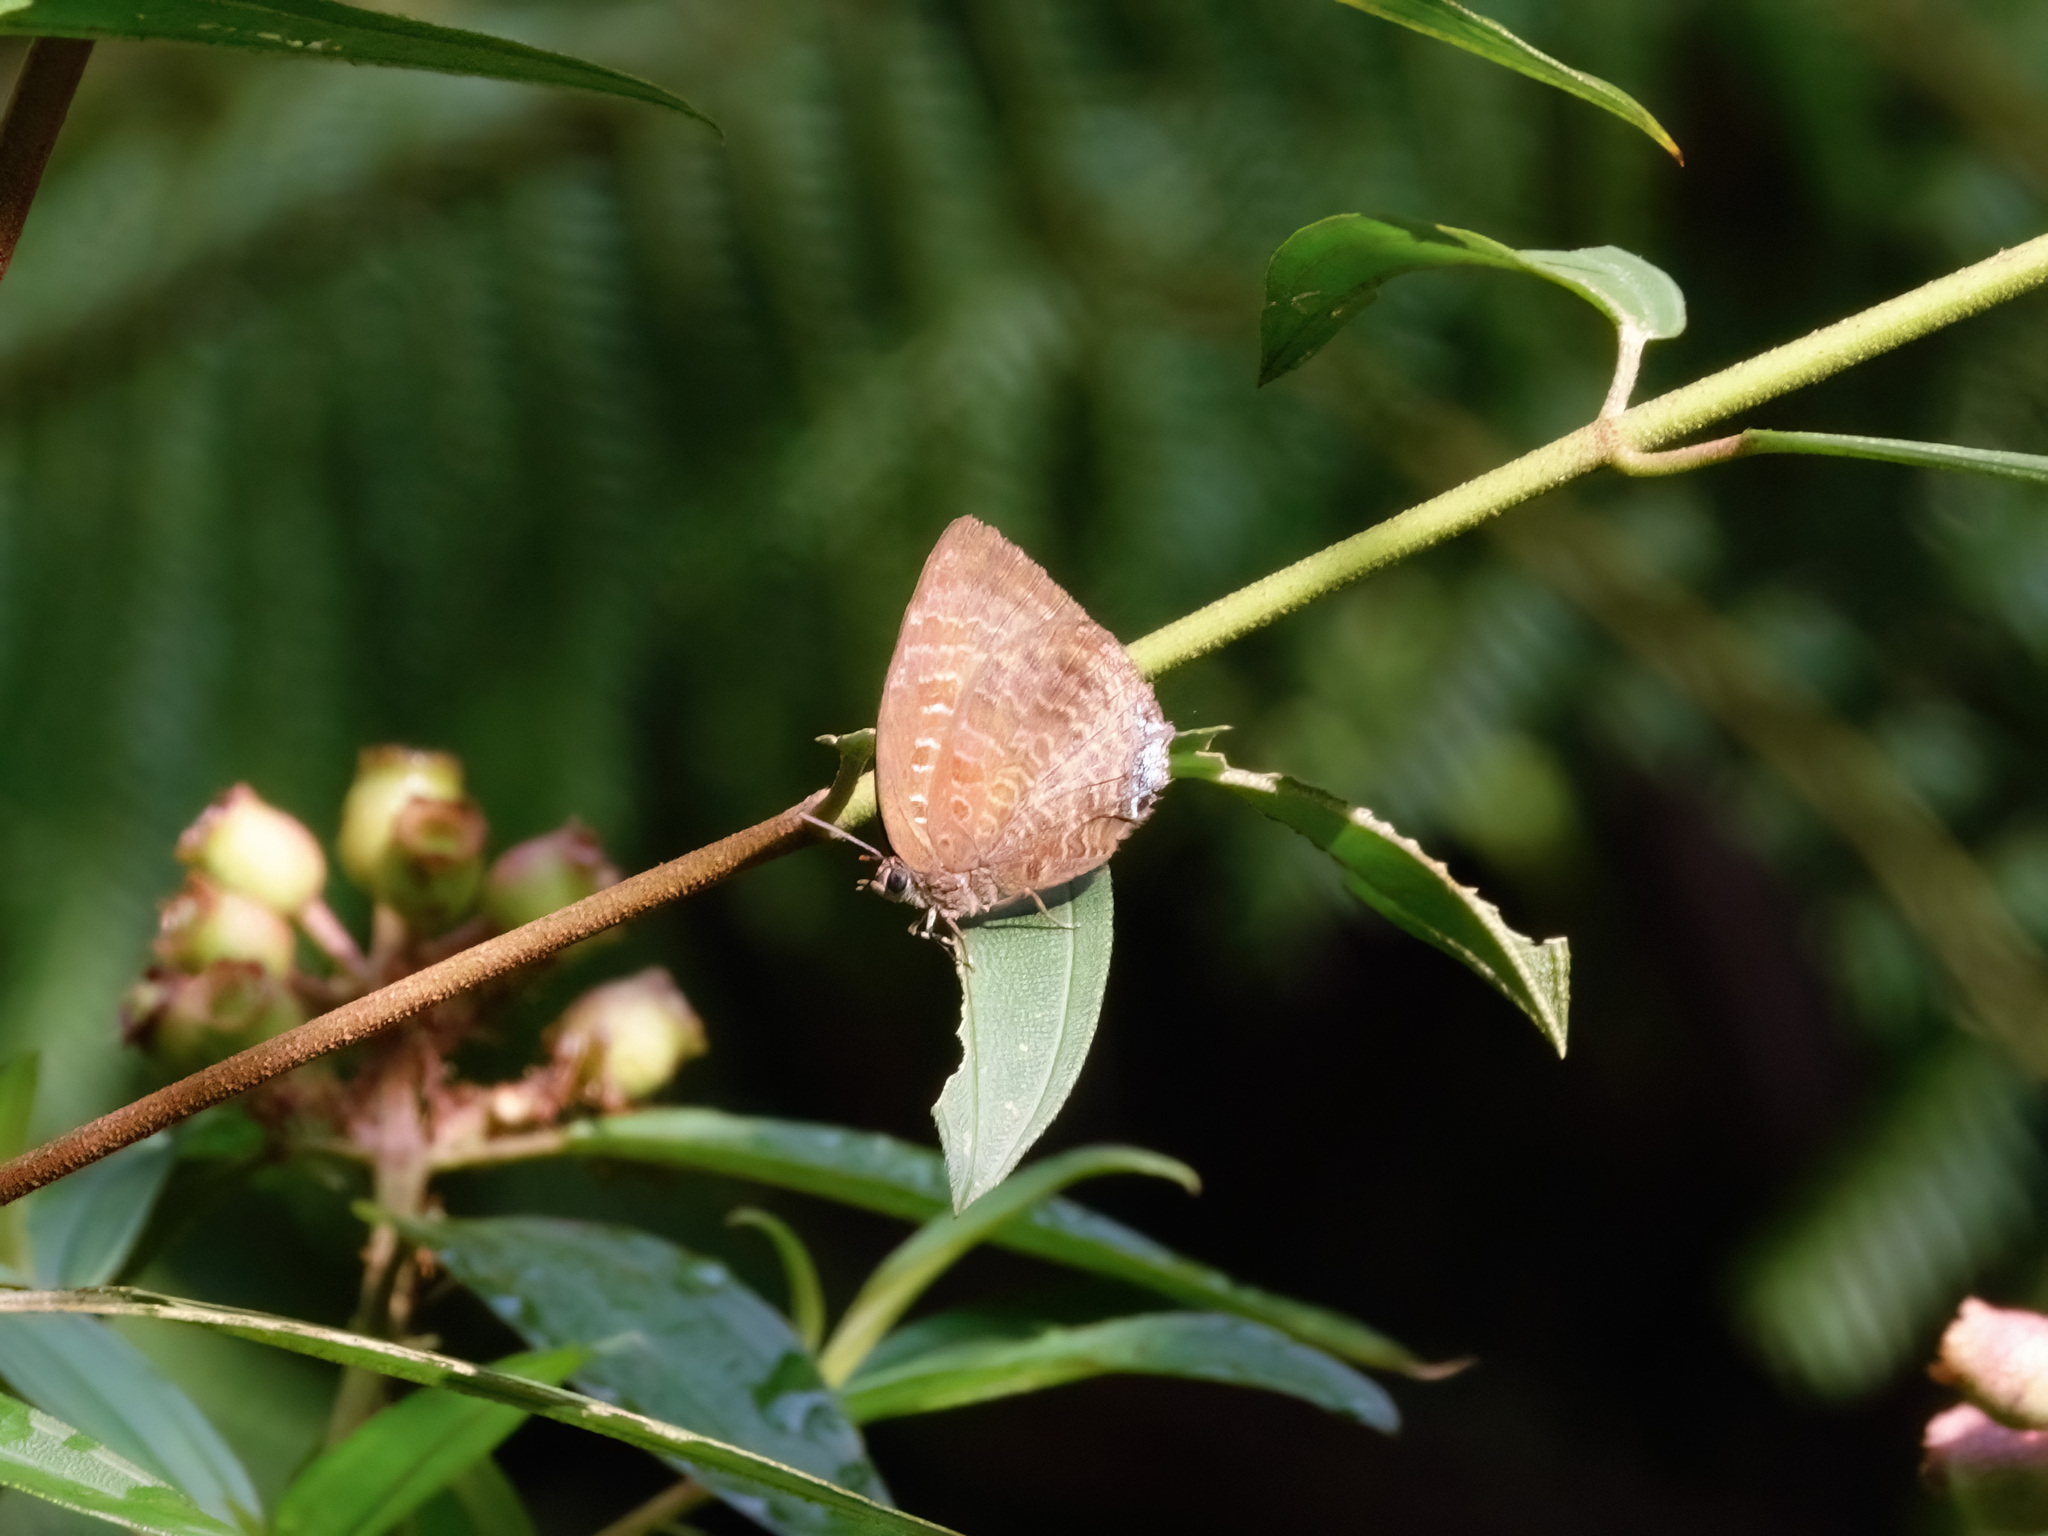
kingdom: Animalia
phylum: Arthropoda
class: Insecta
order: Lepidoptera
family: Lycaenidae
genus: Arhopala
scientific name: Arhopala centaurus
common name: Dull oak-blue
